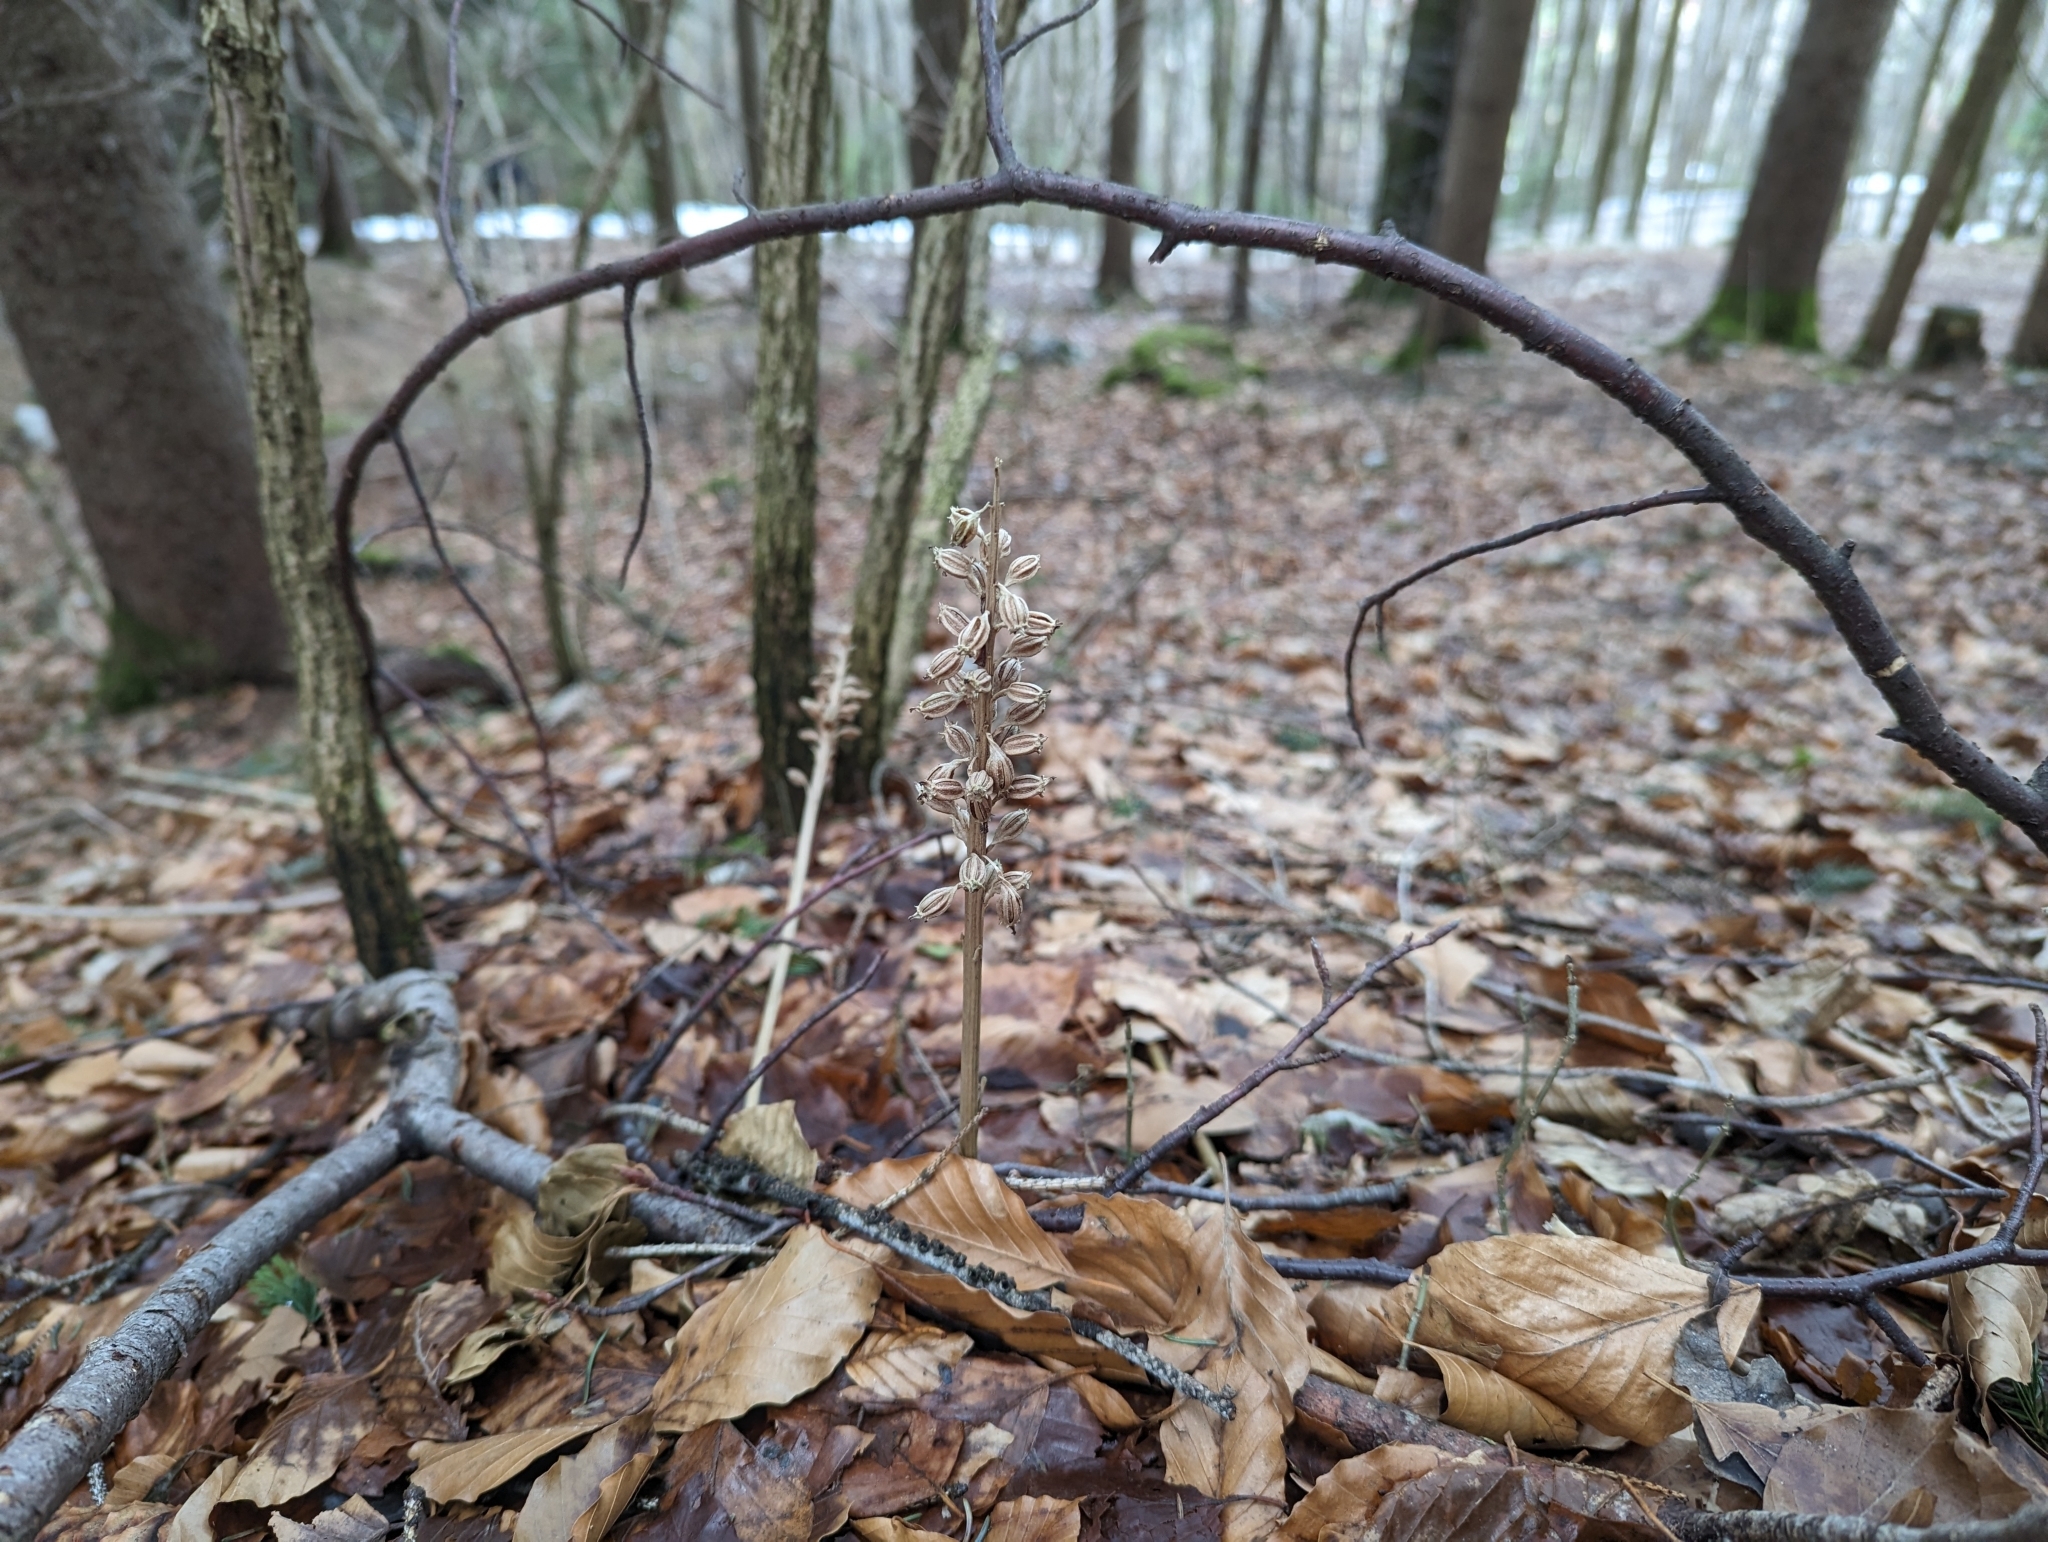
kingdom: Plantae
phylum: Tracheophyta
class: Liliopsida
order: Asparagales
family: Orchidaceae
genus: Neottia
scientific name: Neottia nidus-avis
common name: Bird's-nest orchid
